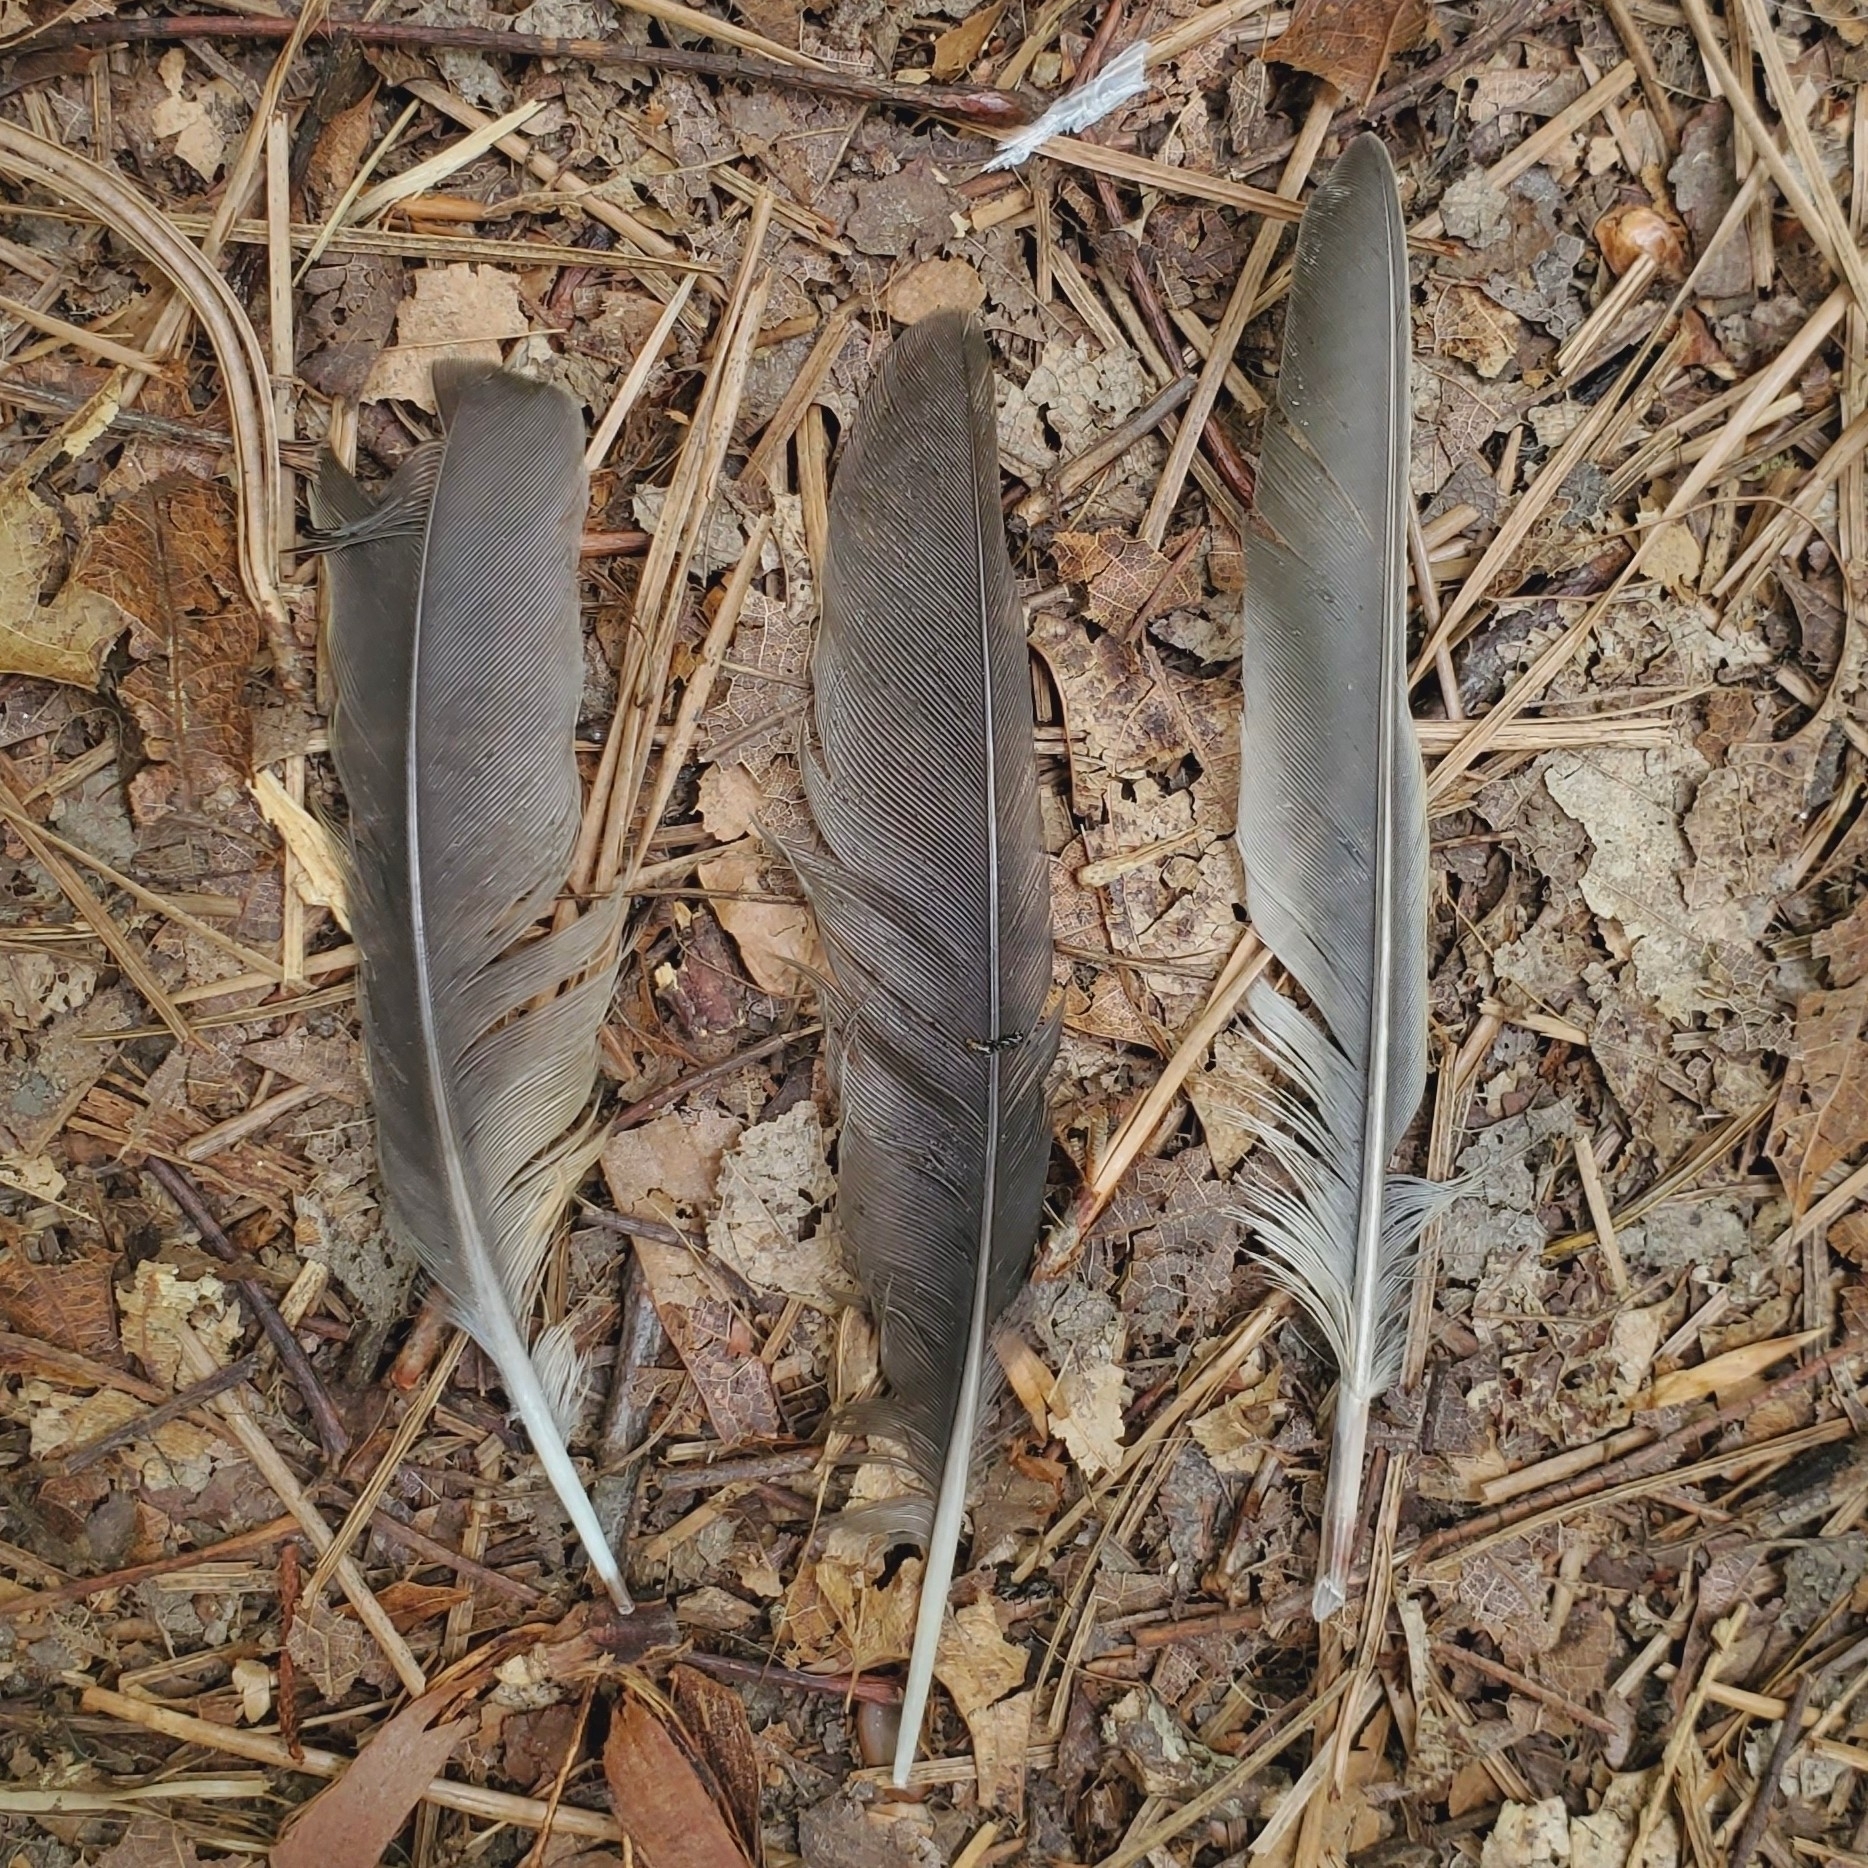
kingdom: Animalia
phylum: Chordata
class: Aves
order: Passeriformes
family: Turdidae
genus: Turdus
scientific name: Turdus migratorius
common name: American robin
